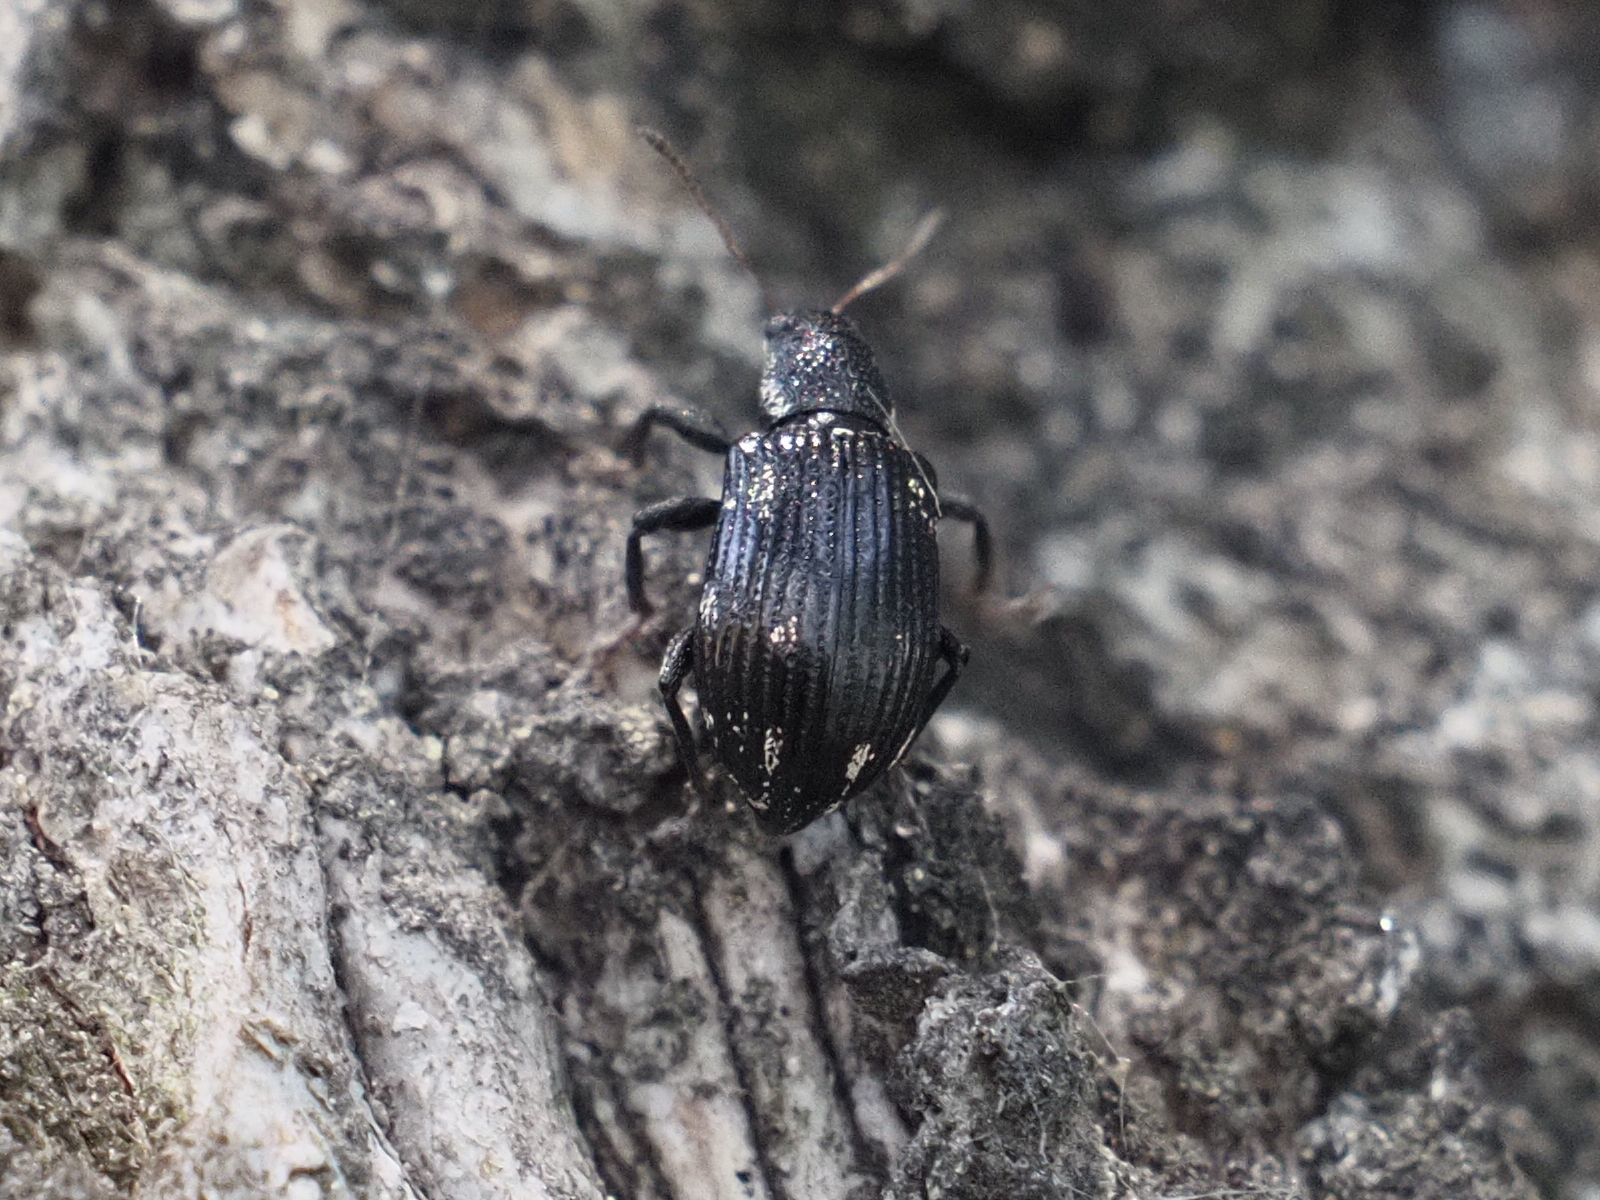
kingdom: Animalia
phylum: Arthropoda
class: Insecta
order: Coleoptera
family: Curculionidae
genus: Polydrusus
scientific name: Polydrusus picus
